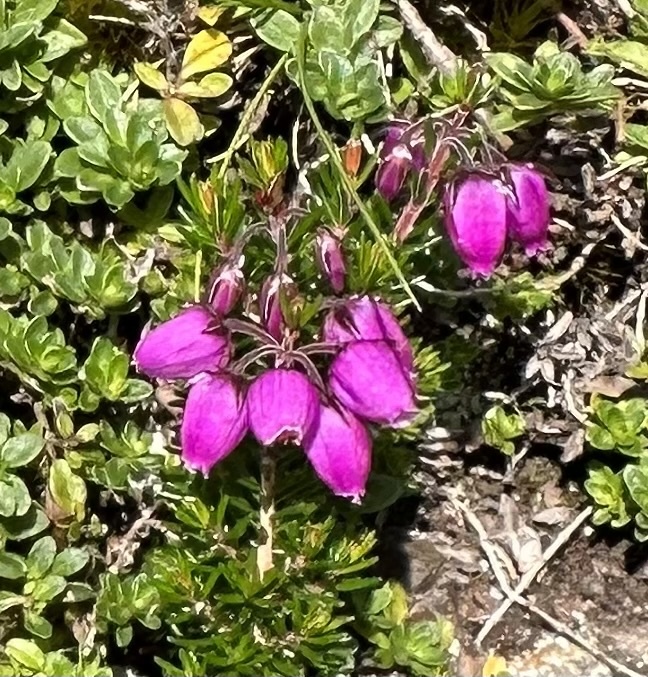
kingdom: Plantae
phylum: Tracheophyta
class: Magnoliopsida
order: Ericales
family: Ericaceae
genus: Erica
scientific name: Erica cinerea
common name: Bell heather
